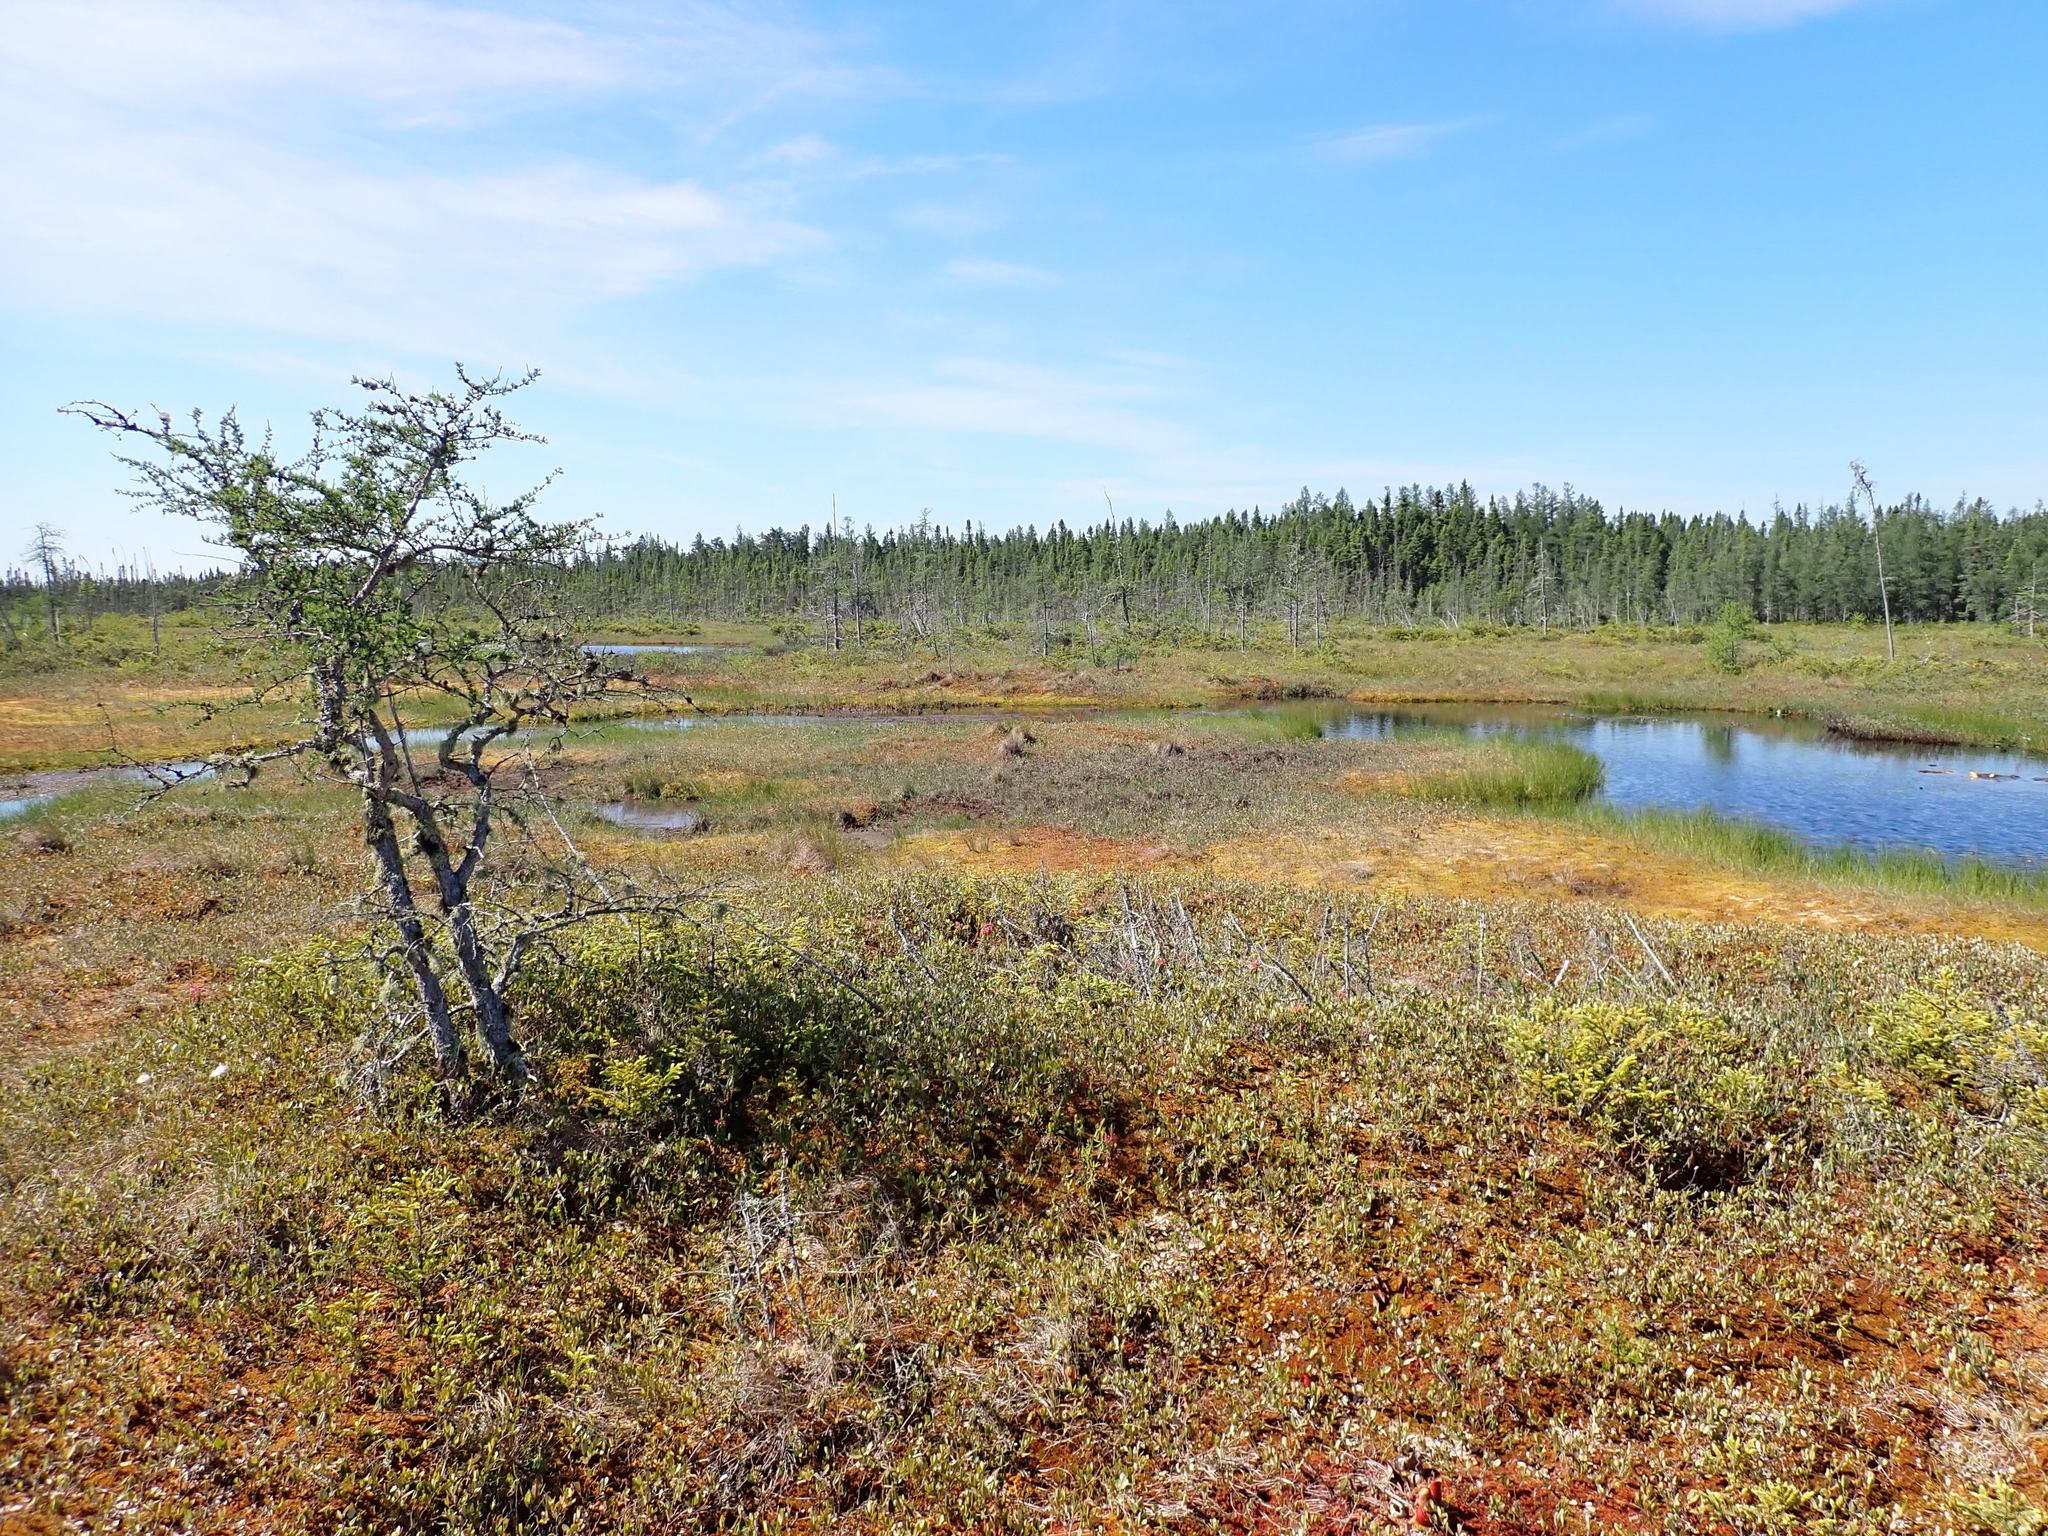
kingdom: Plantae
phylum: Tracheophyta
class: Pinopsida
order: Pinales
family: Pinaceae
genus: Larix
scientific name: Larix laricina
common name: American larch
